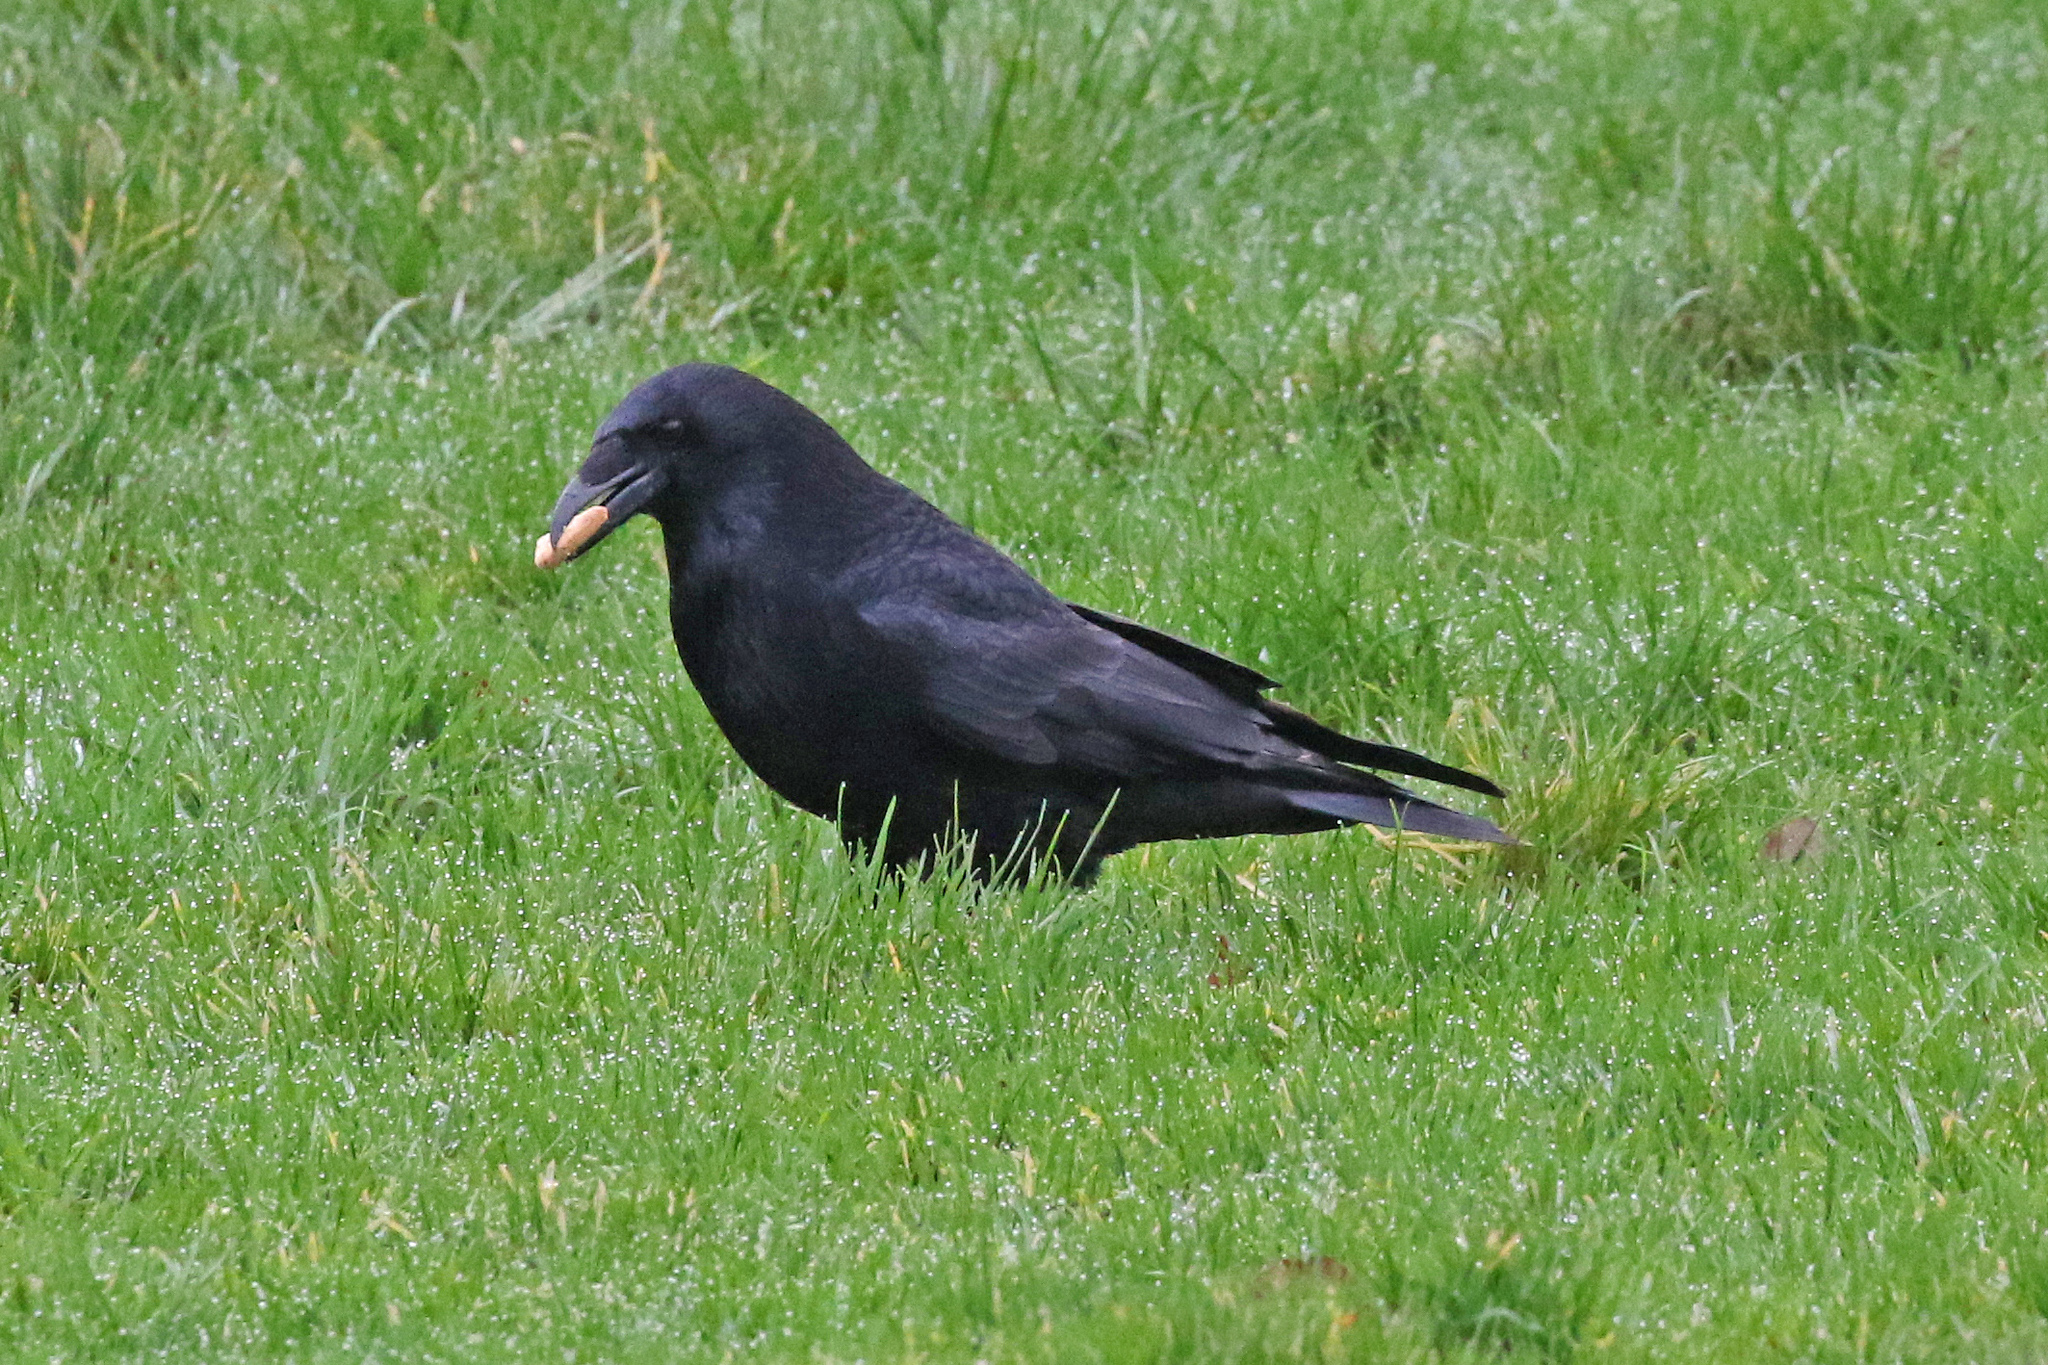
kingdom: Animalia
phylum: Chordata
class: Aves
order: Passeriformes
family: Corvidae
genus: Corvus
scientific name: Corvus corax
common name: Common raven
